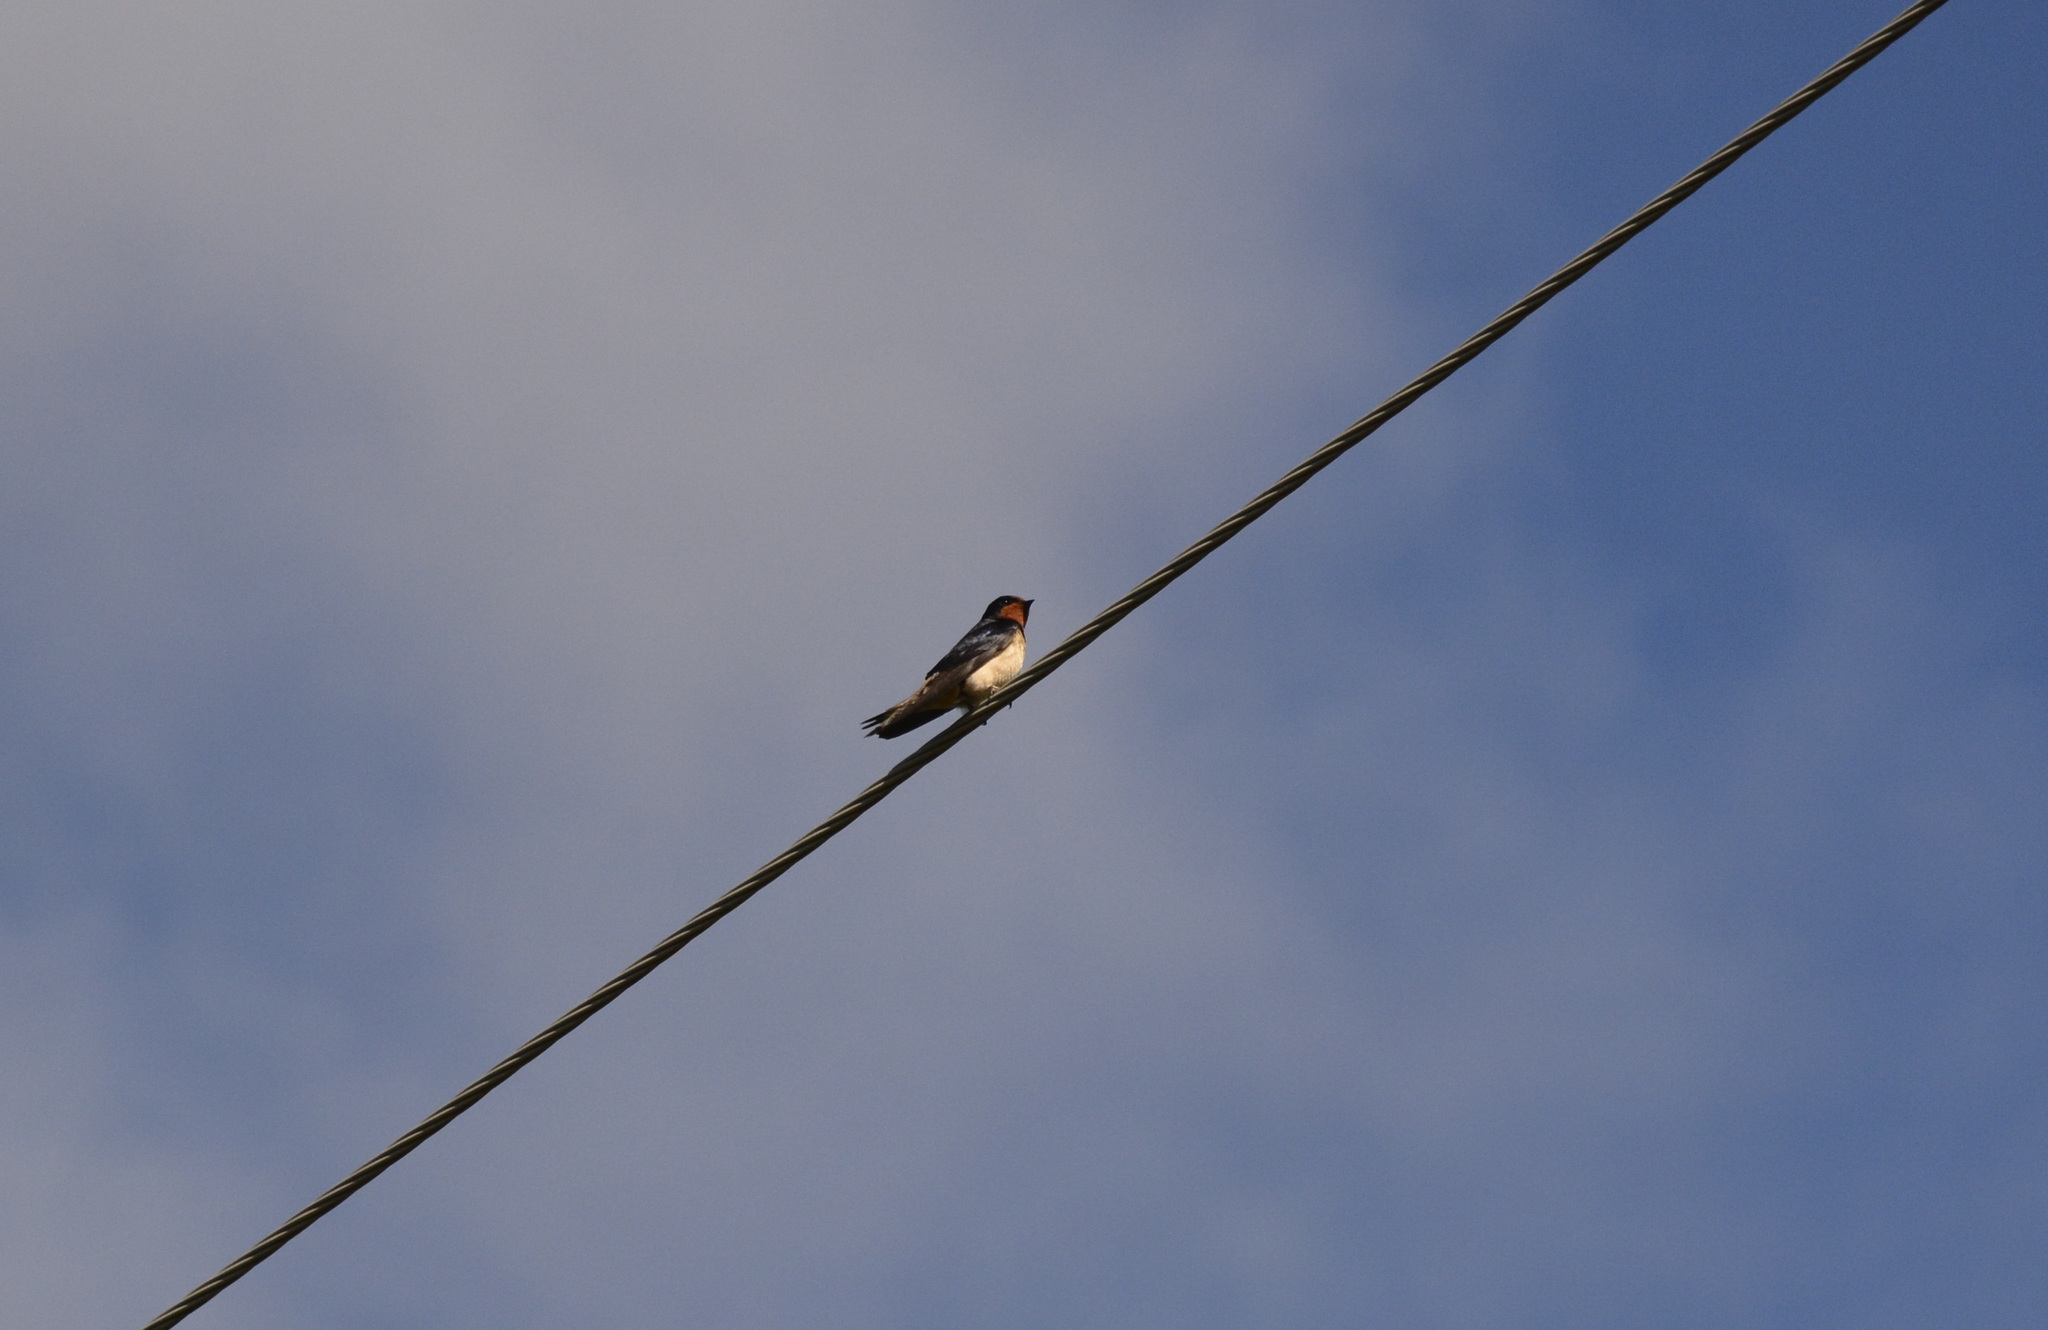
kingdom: Animalia
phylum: Chordata
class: Aves
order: Passeriformes
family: Hirundinidae
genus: Hirundo
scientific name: Hirundo rustica
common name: Barn swallow
